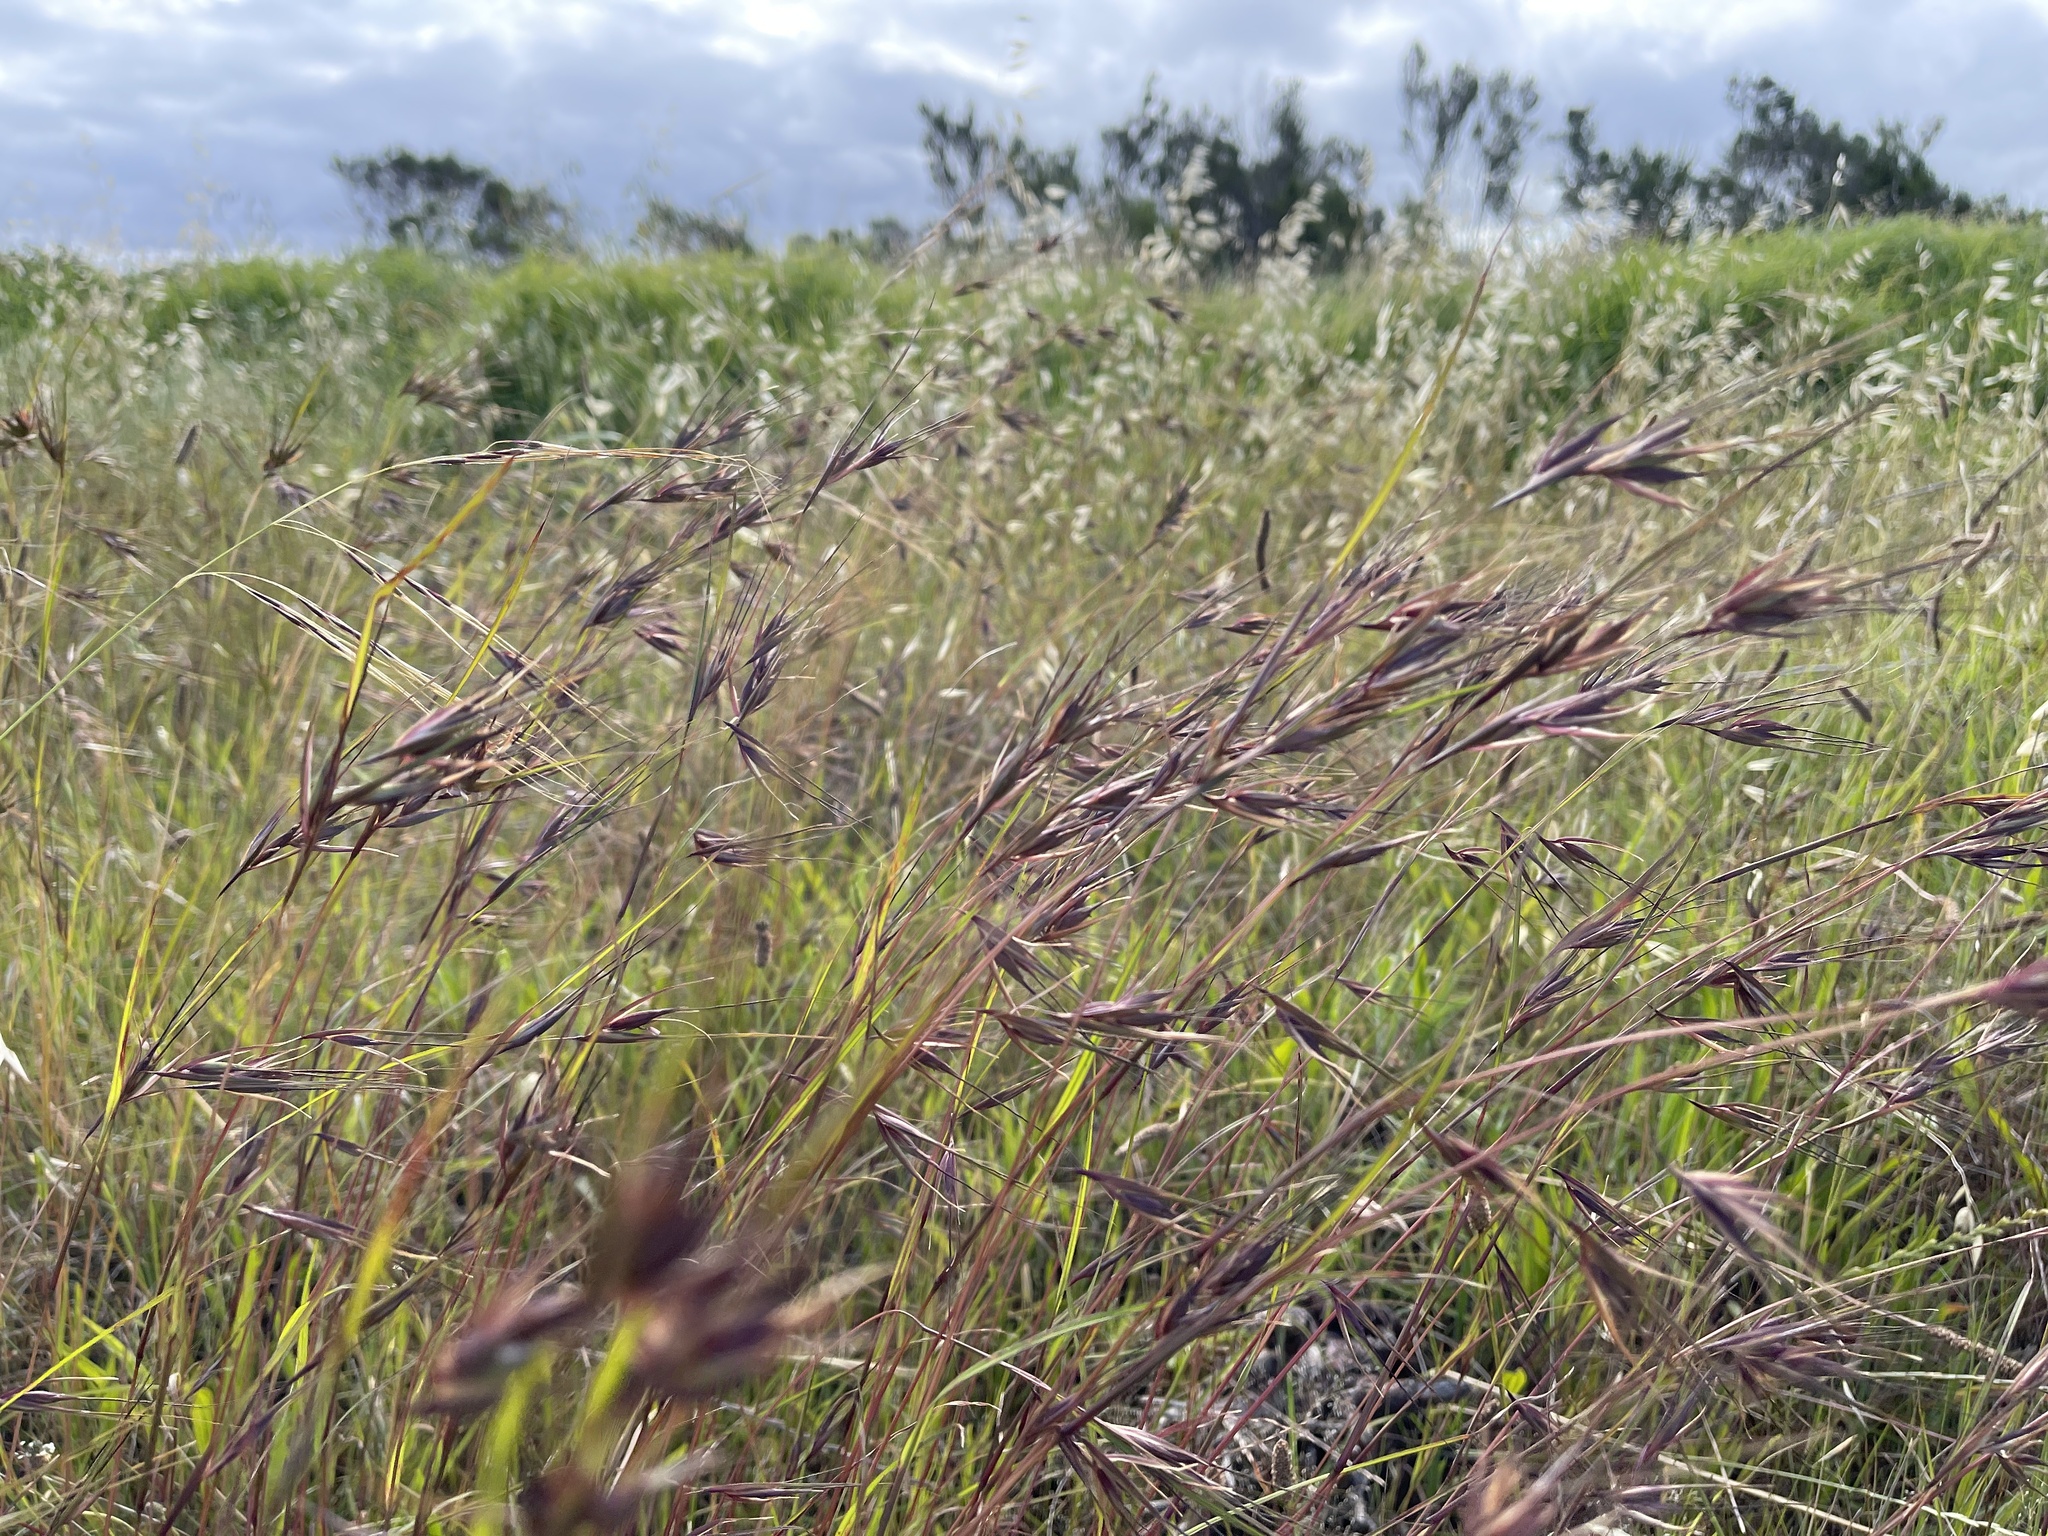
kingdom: Plantae
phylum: Tracheophyta
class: Liliopsida
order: Poales
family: Poaceae
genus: Themeda
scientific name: Themeda triandra
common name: Kangaroo grass
